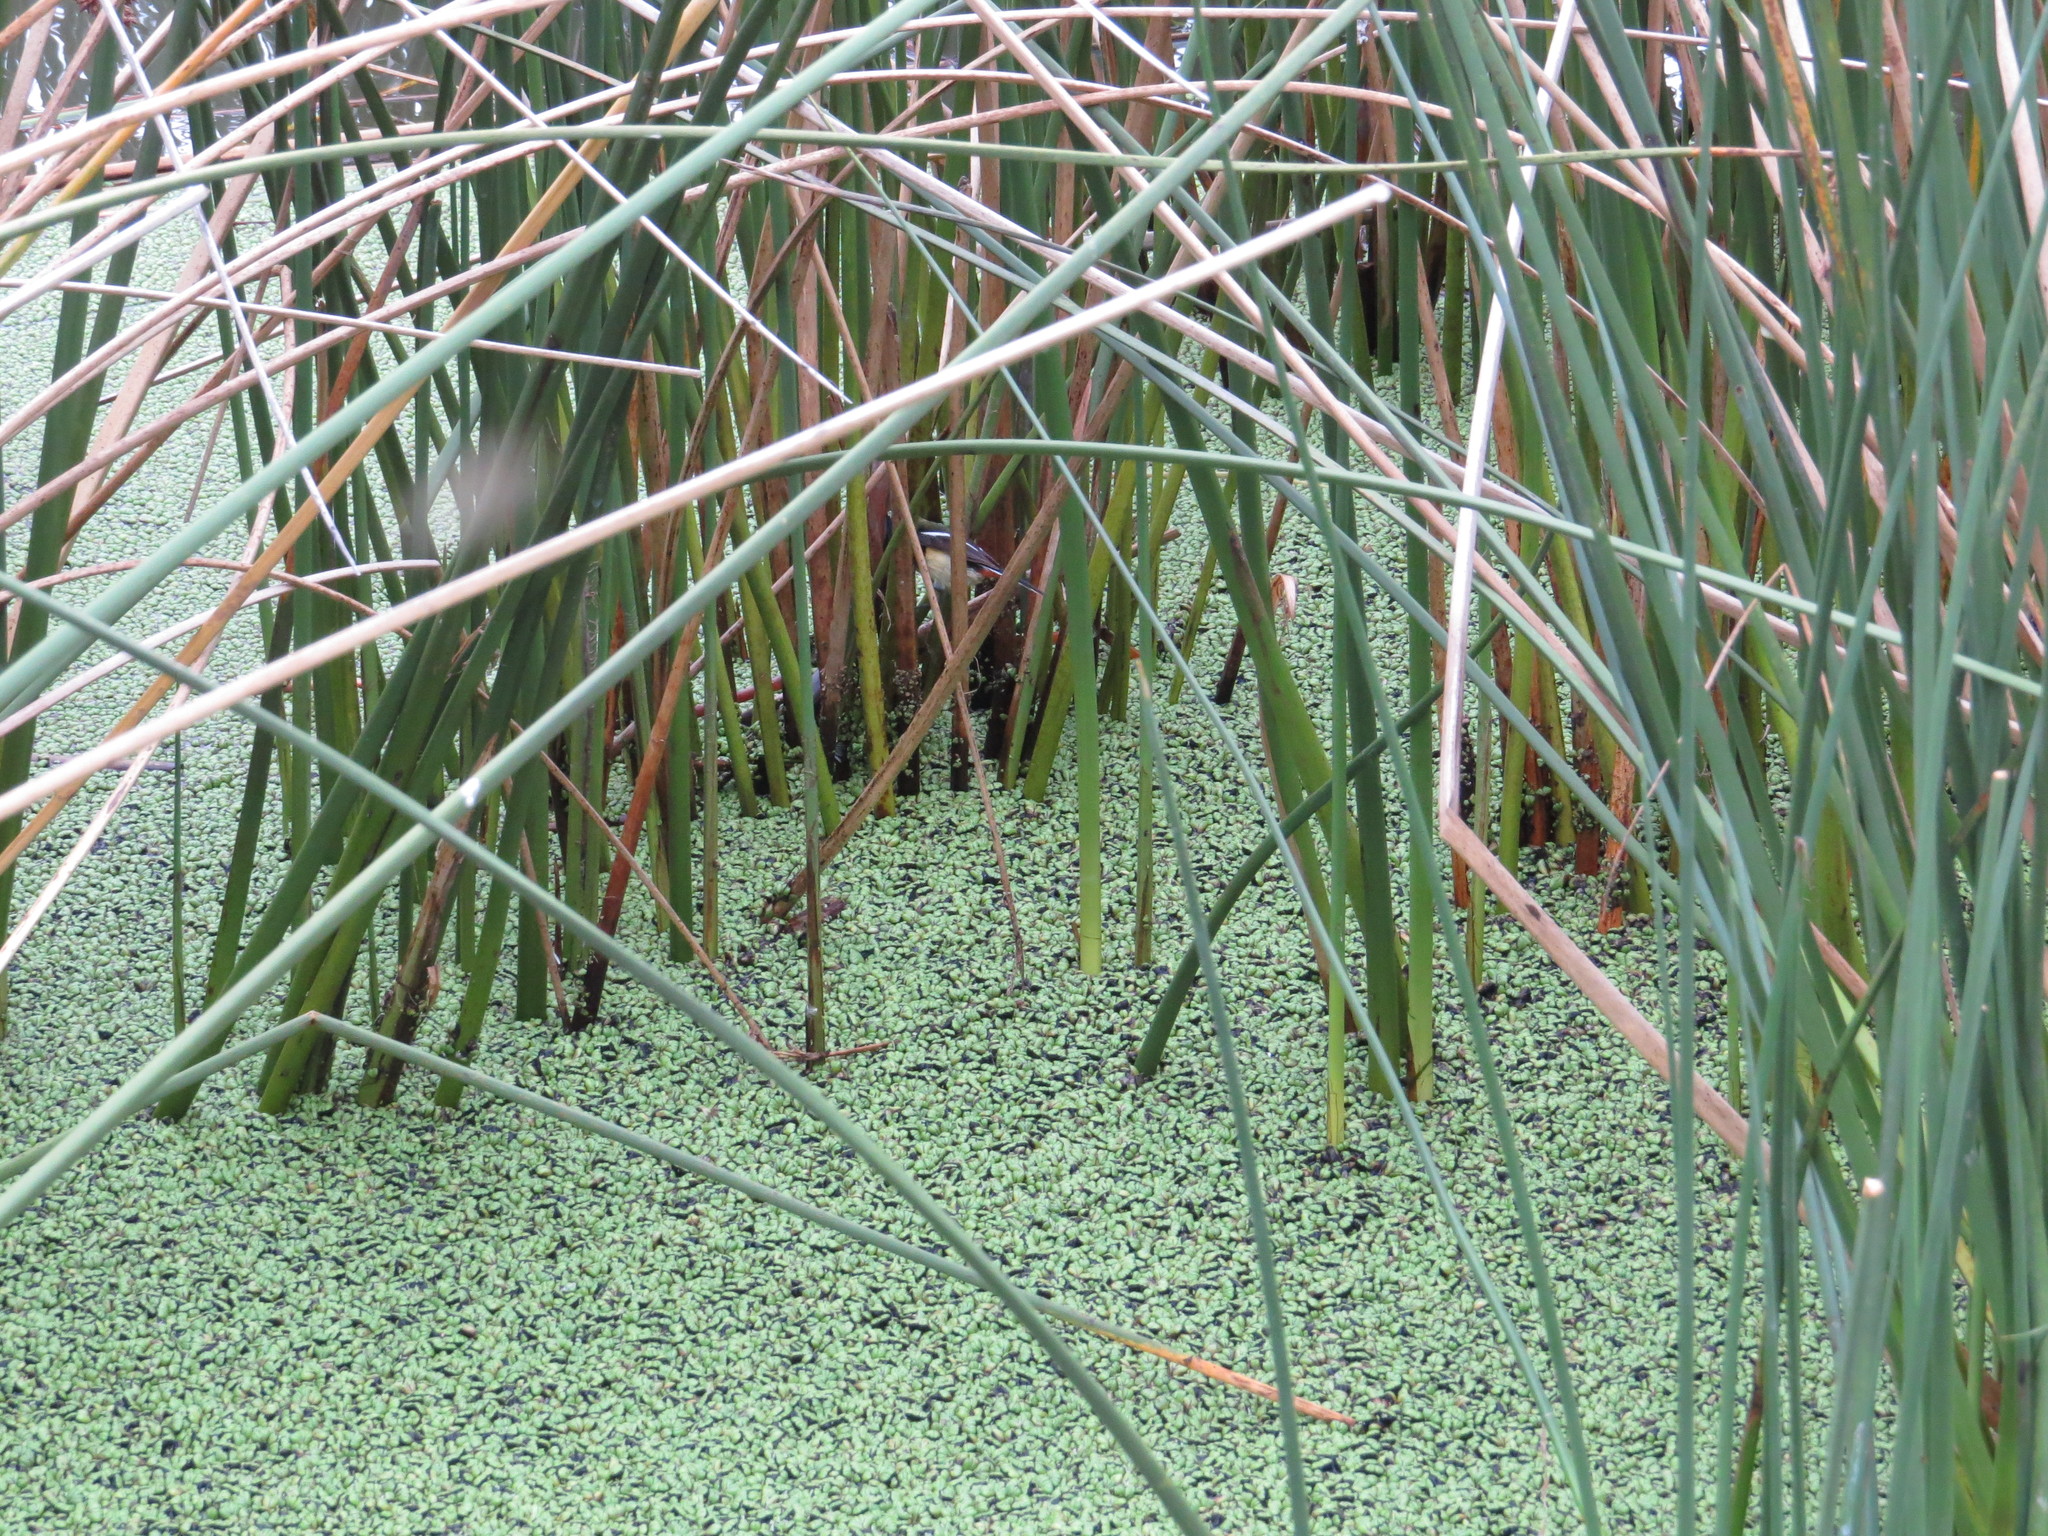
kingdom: Animalia
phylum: Chordata
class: Aves
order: Passeriformes
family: Tyrannidae
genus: Tachuris
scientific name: Tachuris rubrigastra
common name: Many-colored rush tyrant
